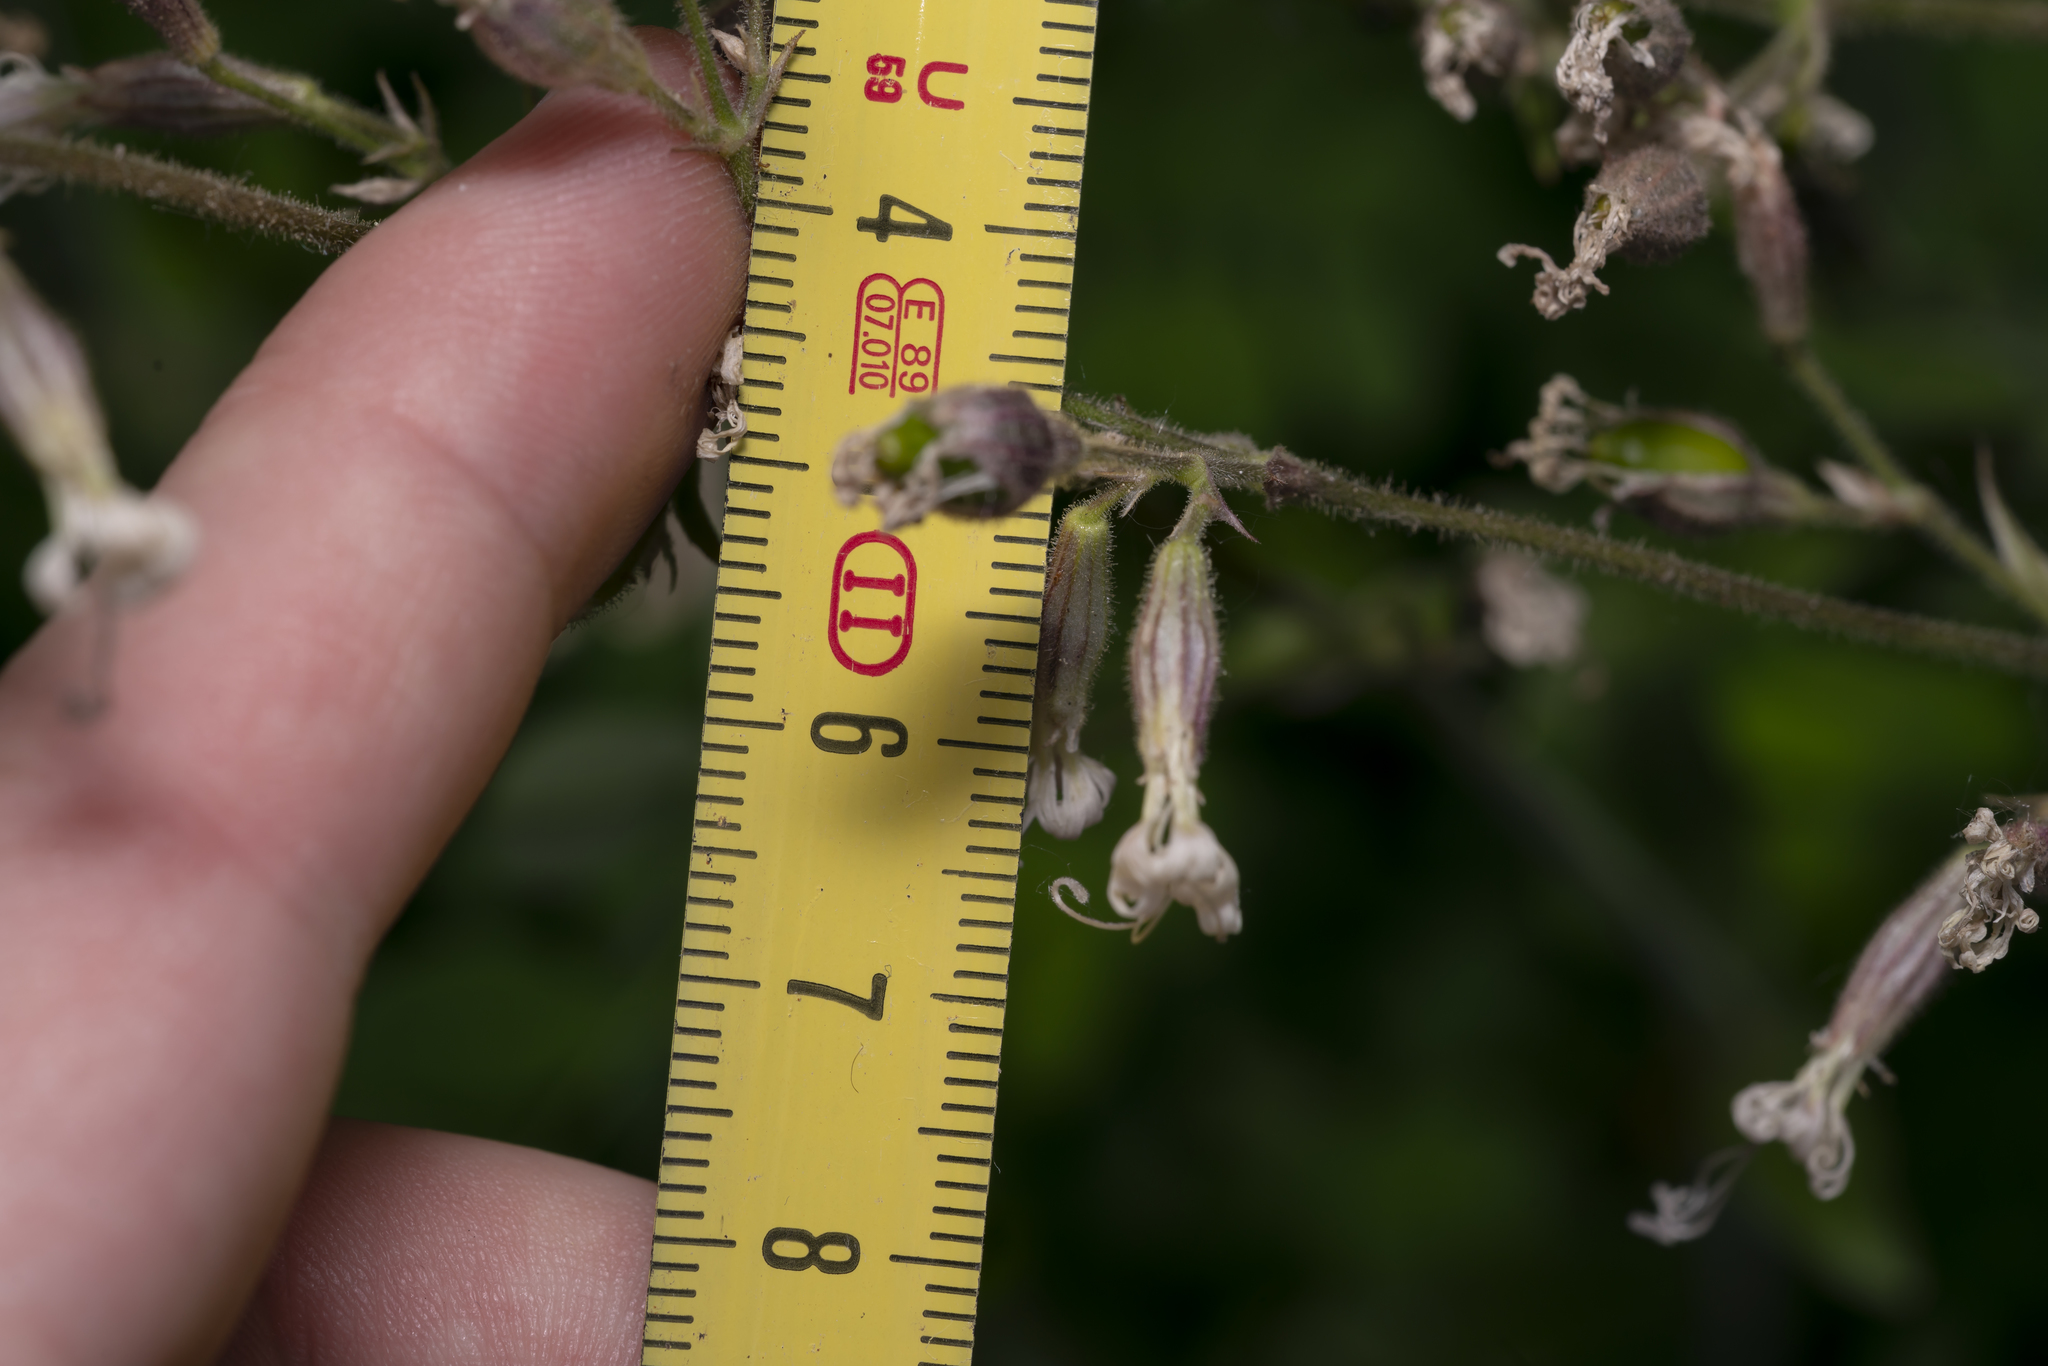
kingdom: Plantae
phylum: Tracheophyta
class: Magnoliopsida
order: Caryophyllales
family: Caryophyllaceae
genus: Silene
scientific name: Silene nutans
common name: Nottingham catchfly
